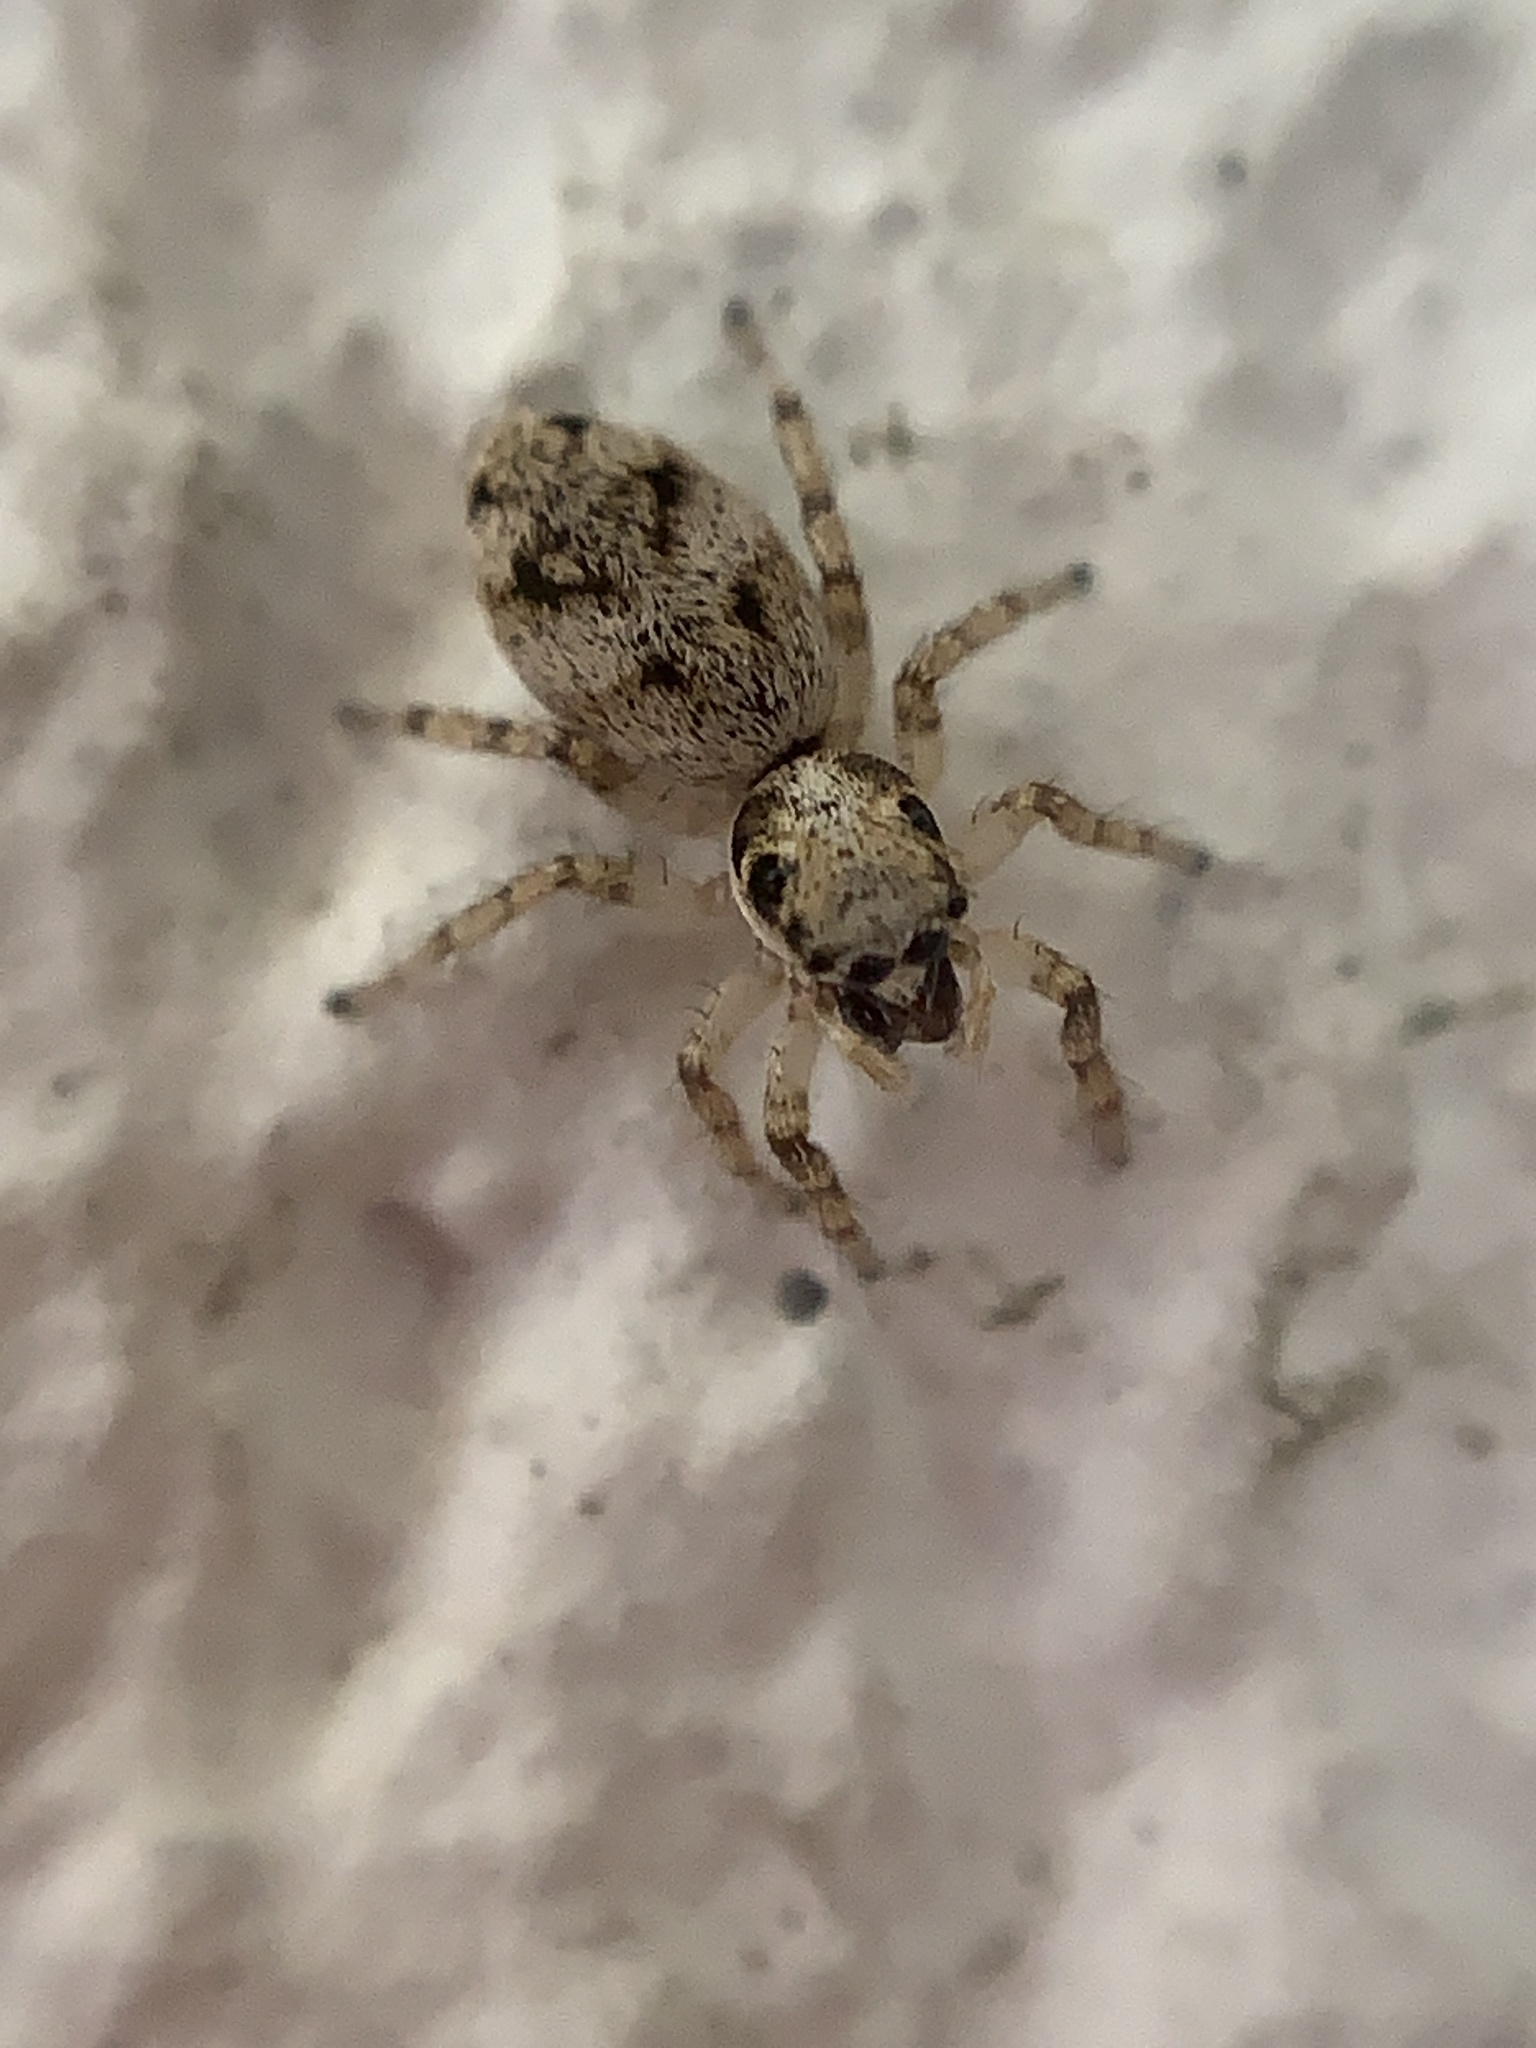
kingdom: Animalia
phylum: Arthropoda
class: Arachnida
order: Araneae
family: Salticidae
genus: Salticus
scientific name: Salticus mutabilis
